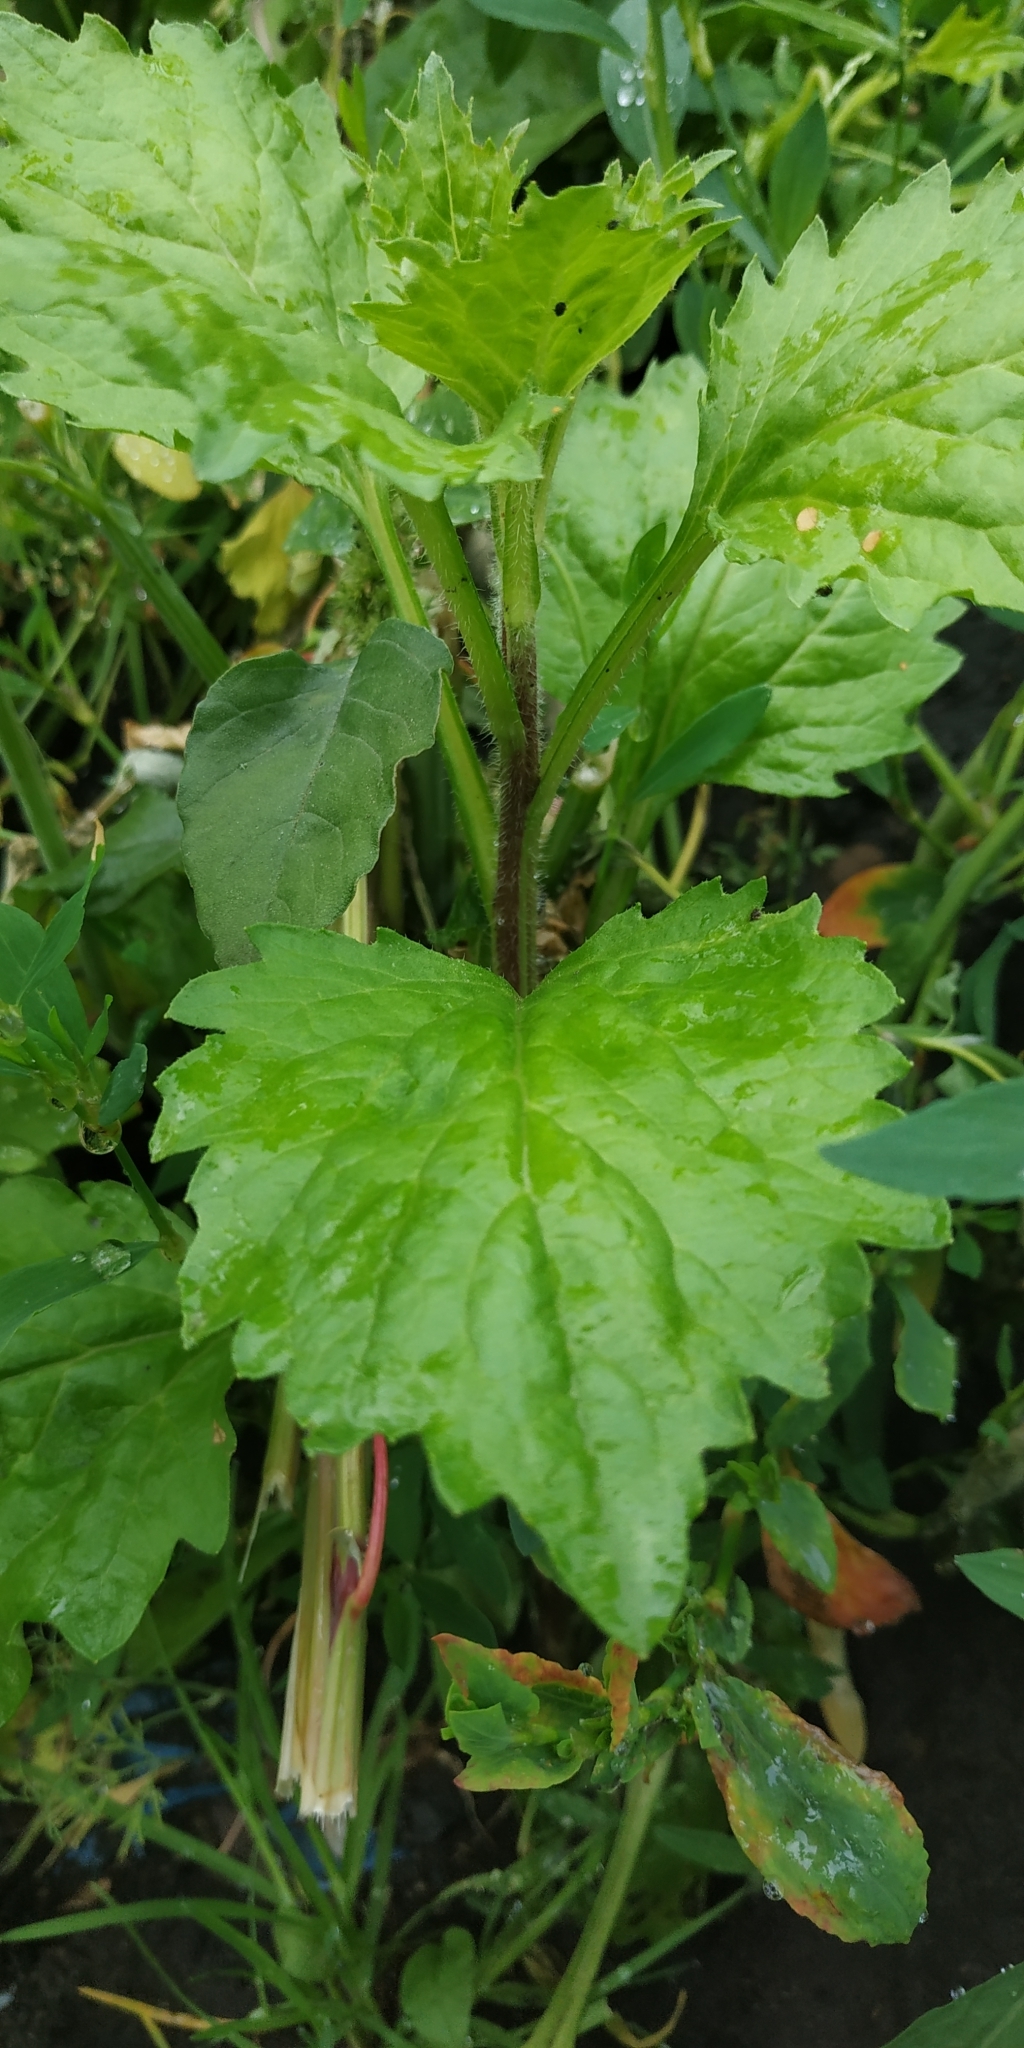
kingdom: Plantae
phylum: Tracheophyta
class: Magnoliopsida
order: Rosales
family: Urticaceae
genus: Urtica
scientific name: Urtica dioica
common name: Common nettle
